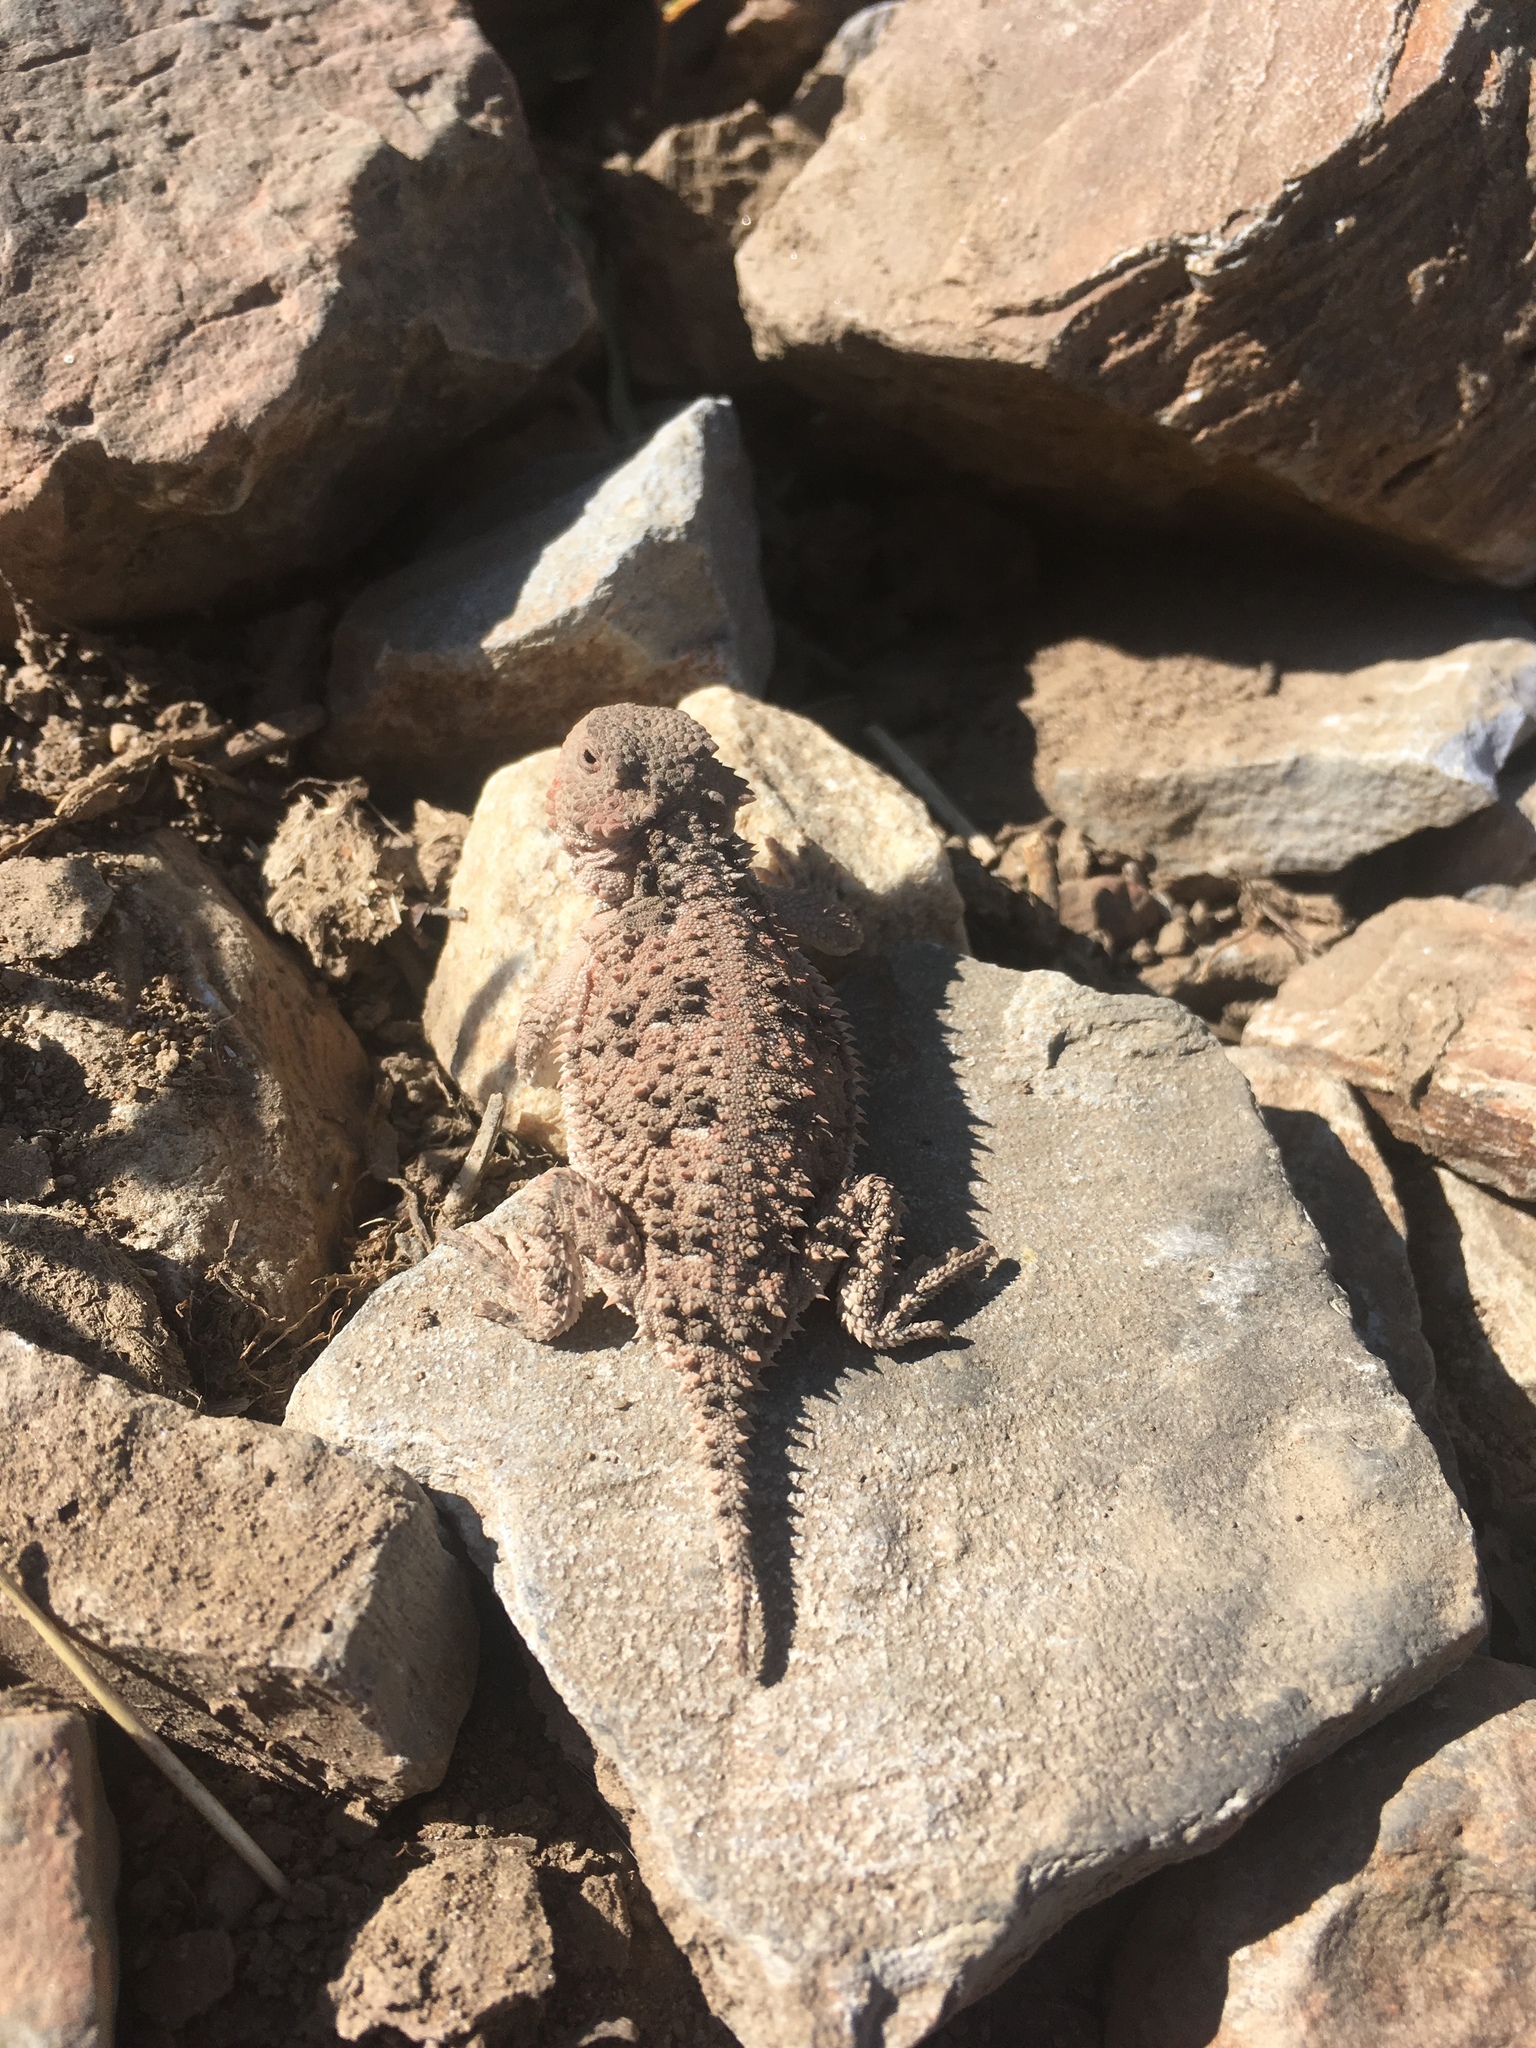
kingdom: Animalia
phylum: Chordata
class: Squamata
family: Phrynosomatidae
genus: Phrynosoma
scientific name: Phrynosoma hernandesi
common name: Greater short-horned lizard
